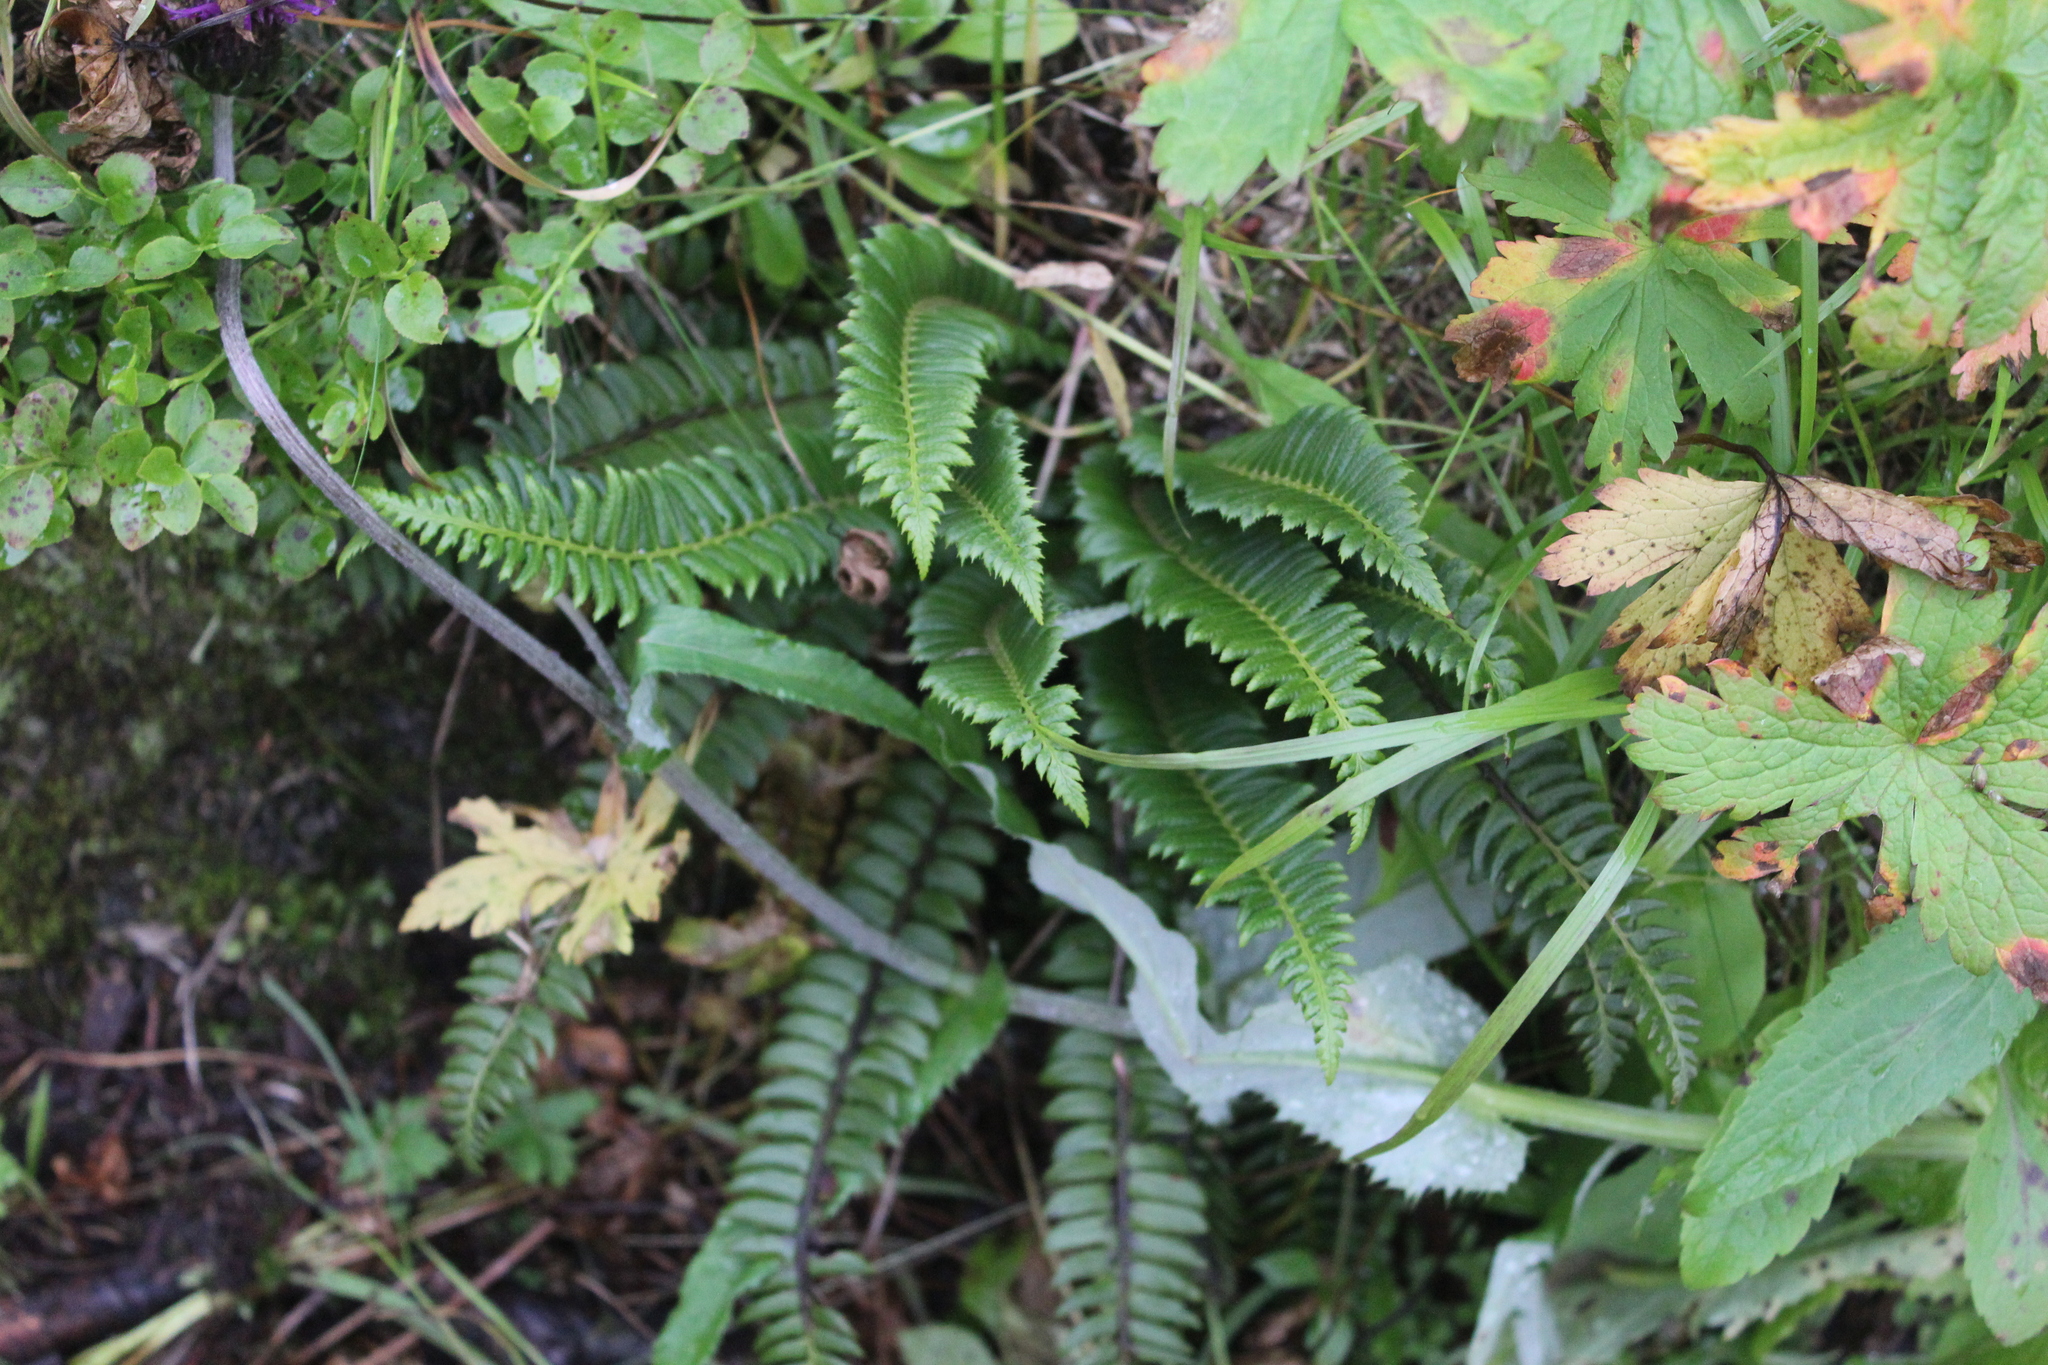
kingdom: Plantae
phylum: Tracheophyta
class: Polypodiopsida
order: Polypodiales
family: Dryopteridaceae
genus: Polystichum
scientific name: Polystichum lonchitis
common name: Holly fern
